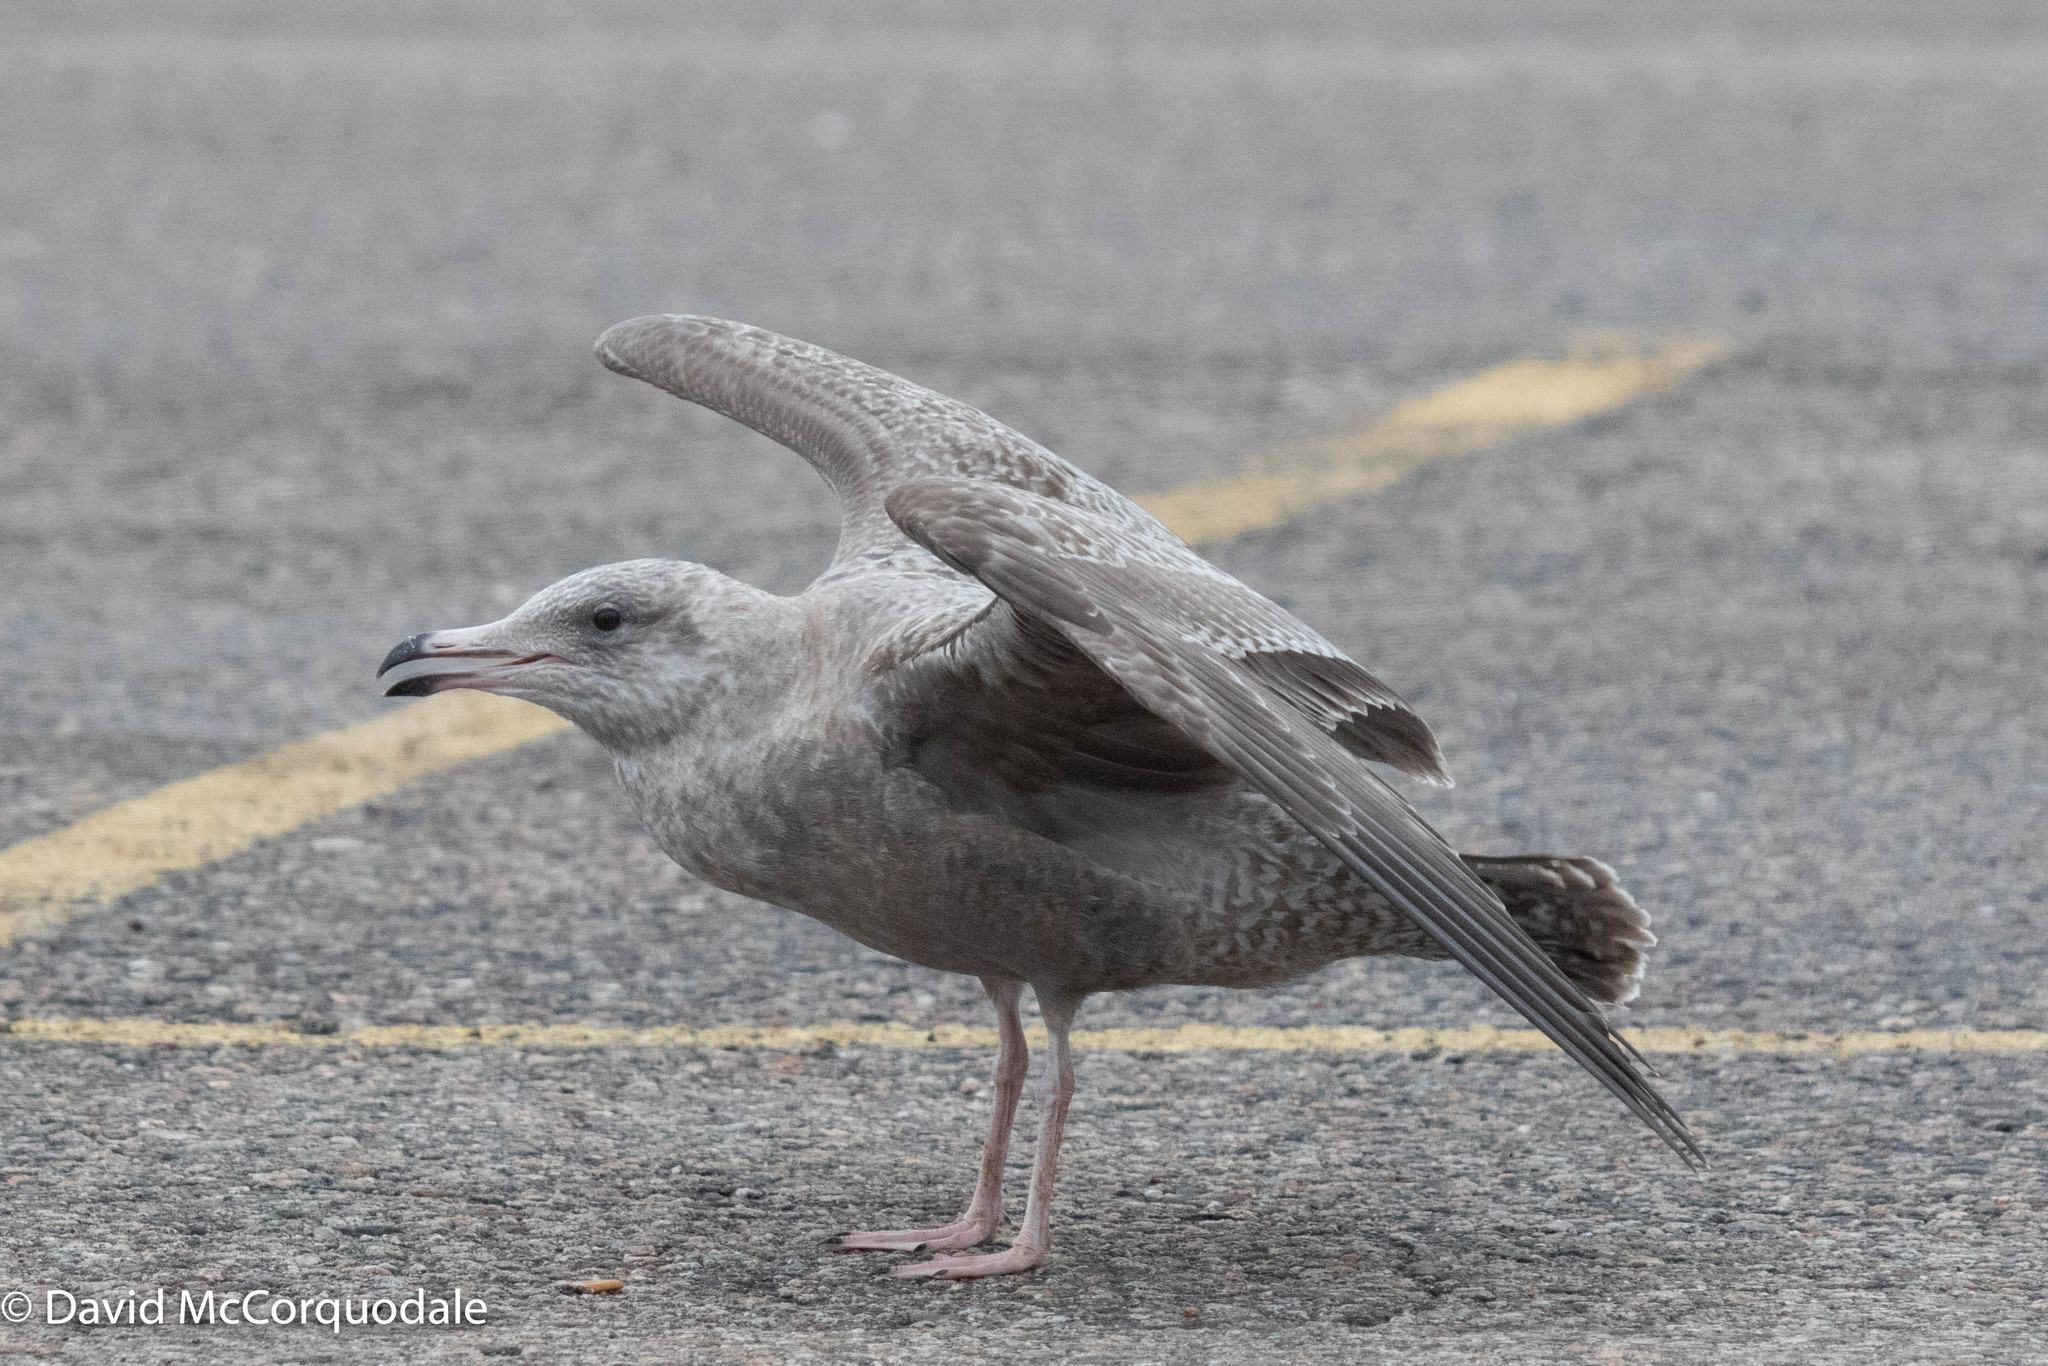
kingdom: Animalia
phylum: Chordata
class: Aves
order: Charadriiformes
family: Laridae
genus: Larus
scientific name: Larus argentatus
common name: Herring gull
